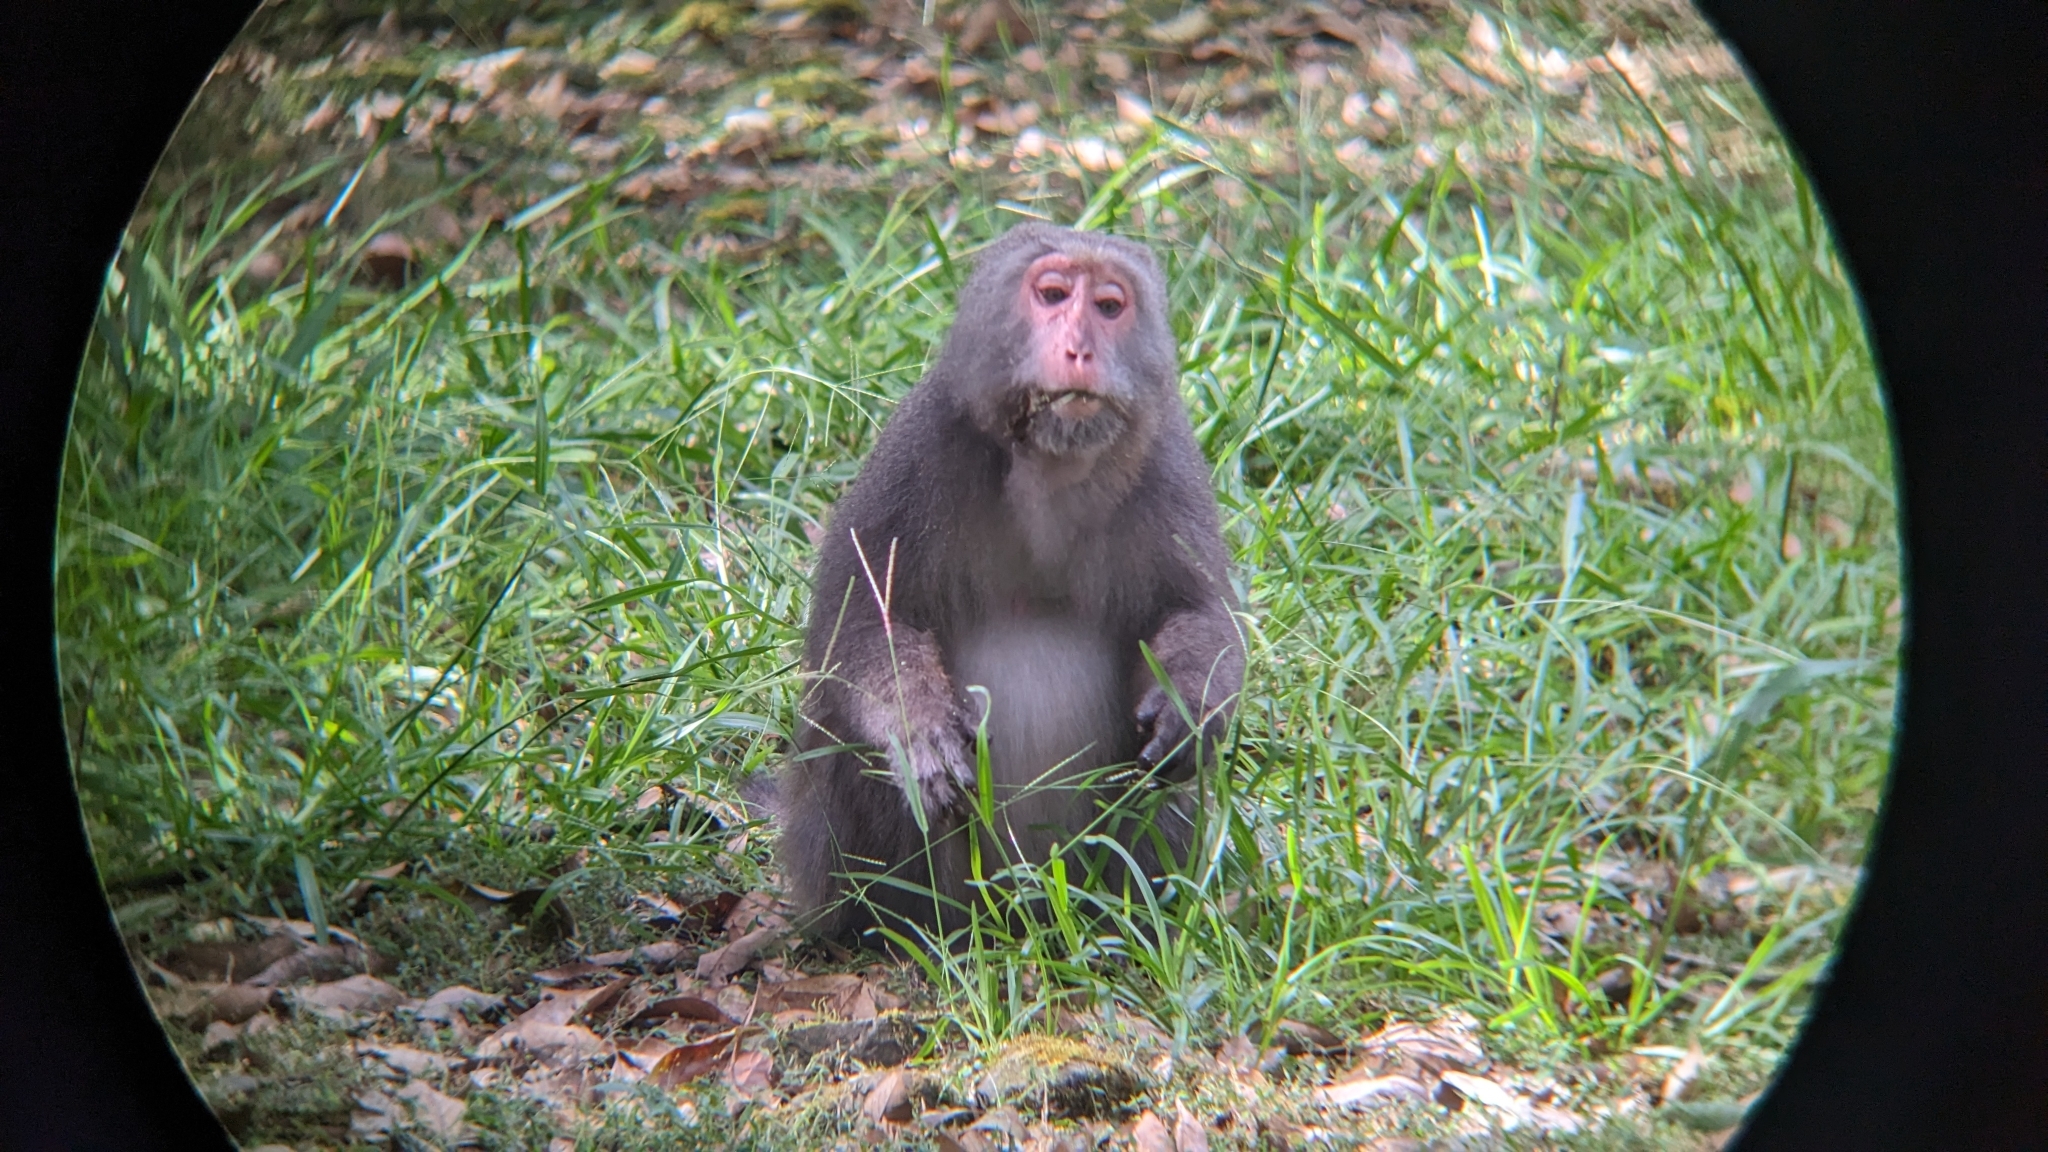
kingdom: Animalia
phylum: Chordata
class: Mammalia
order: Primates
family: Cercopithecidae
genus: Macaca
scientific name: Macaca cyclopis
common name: Formosan rock macaque
